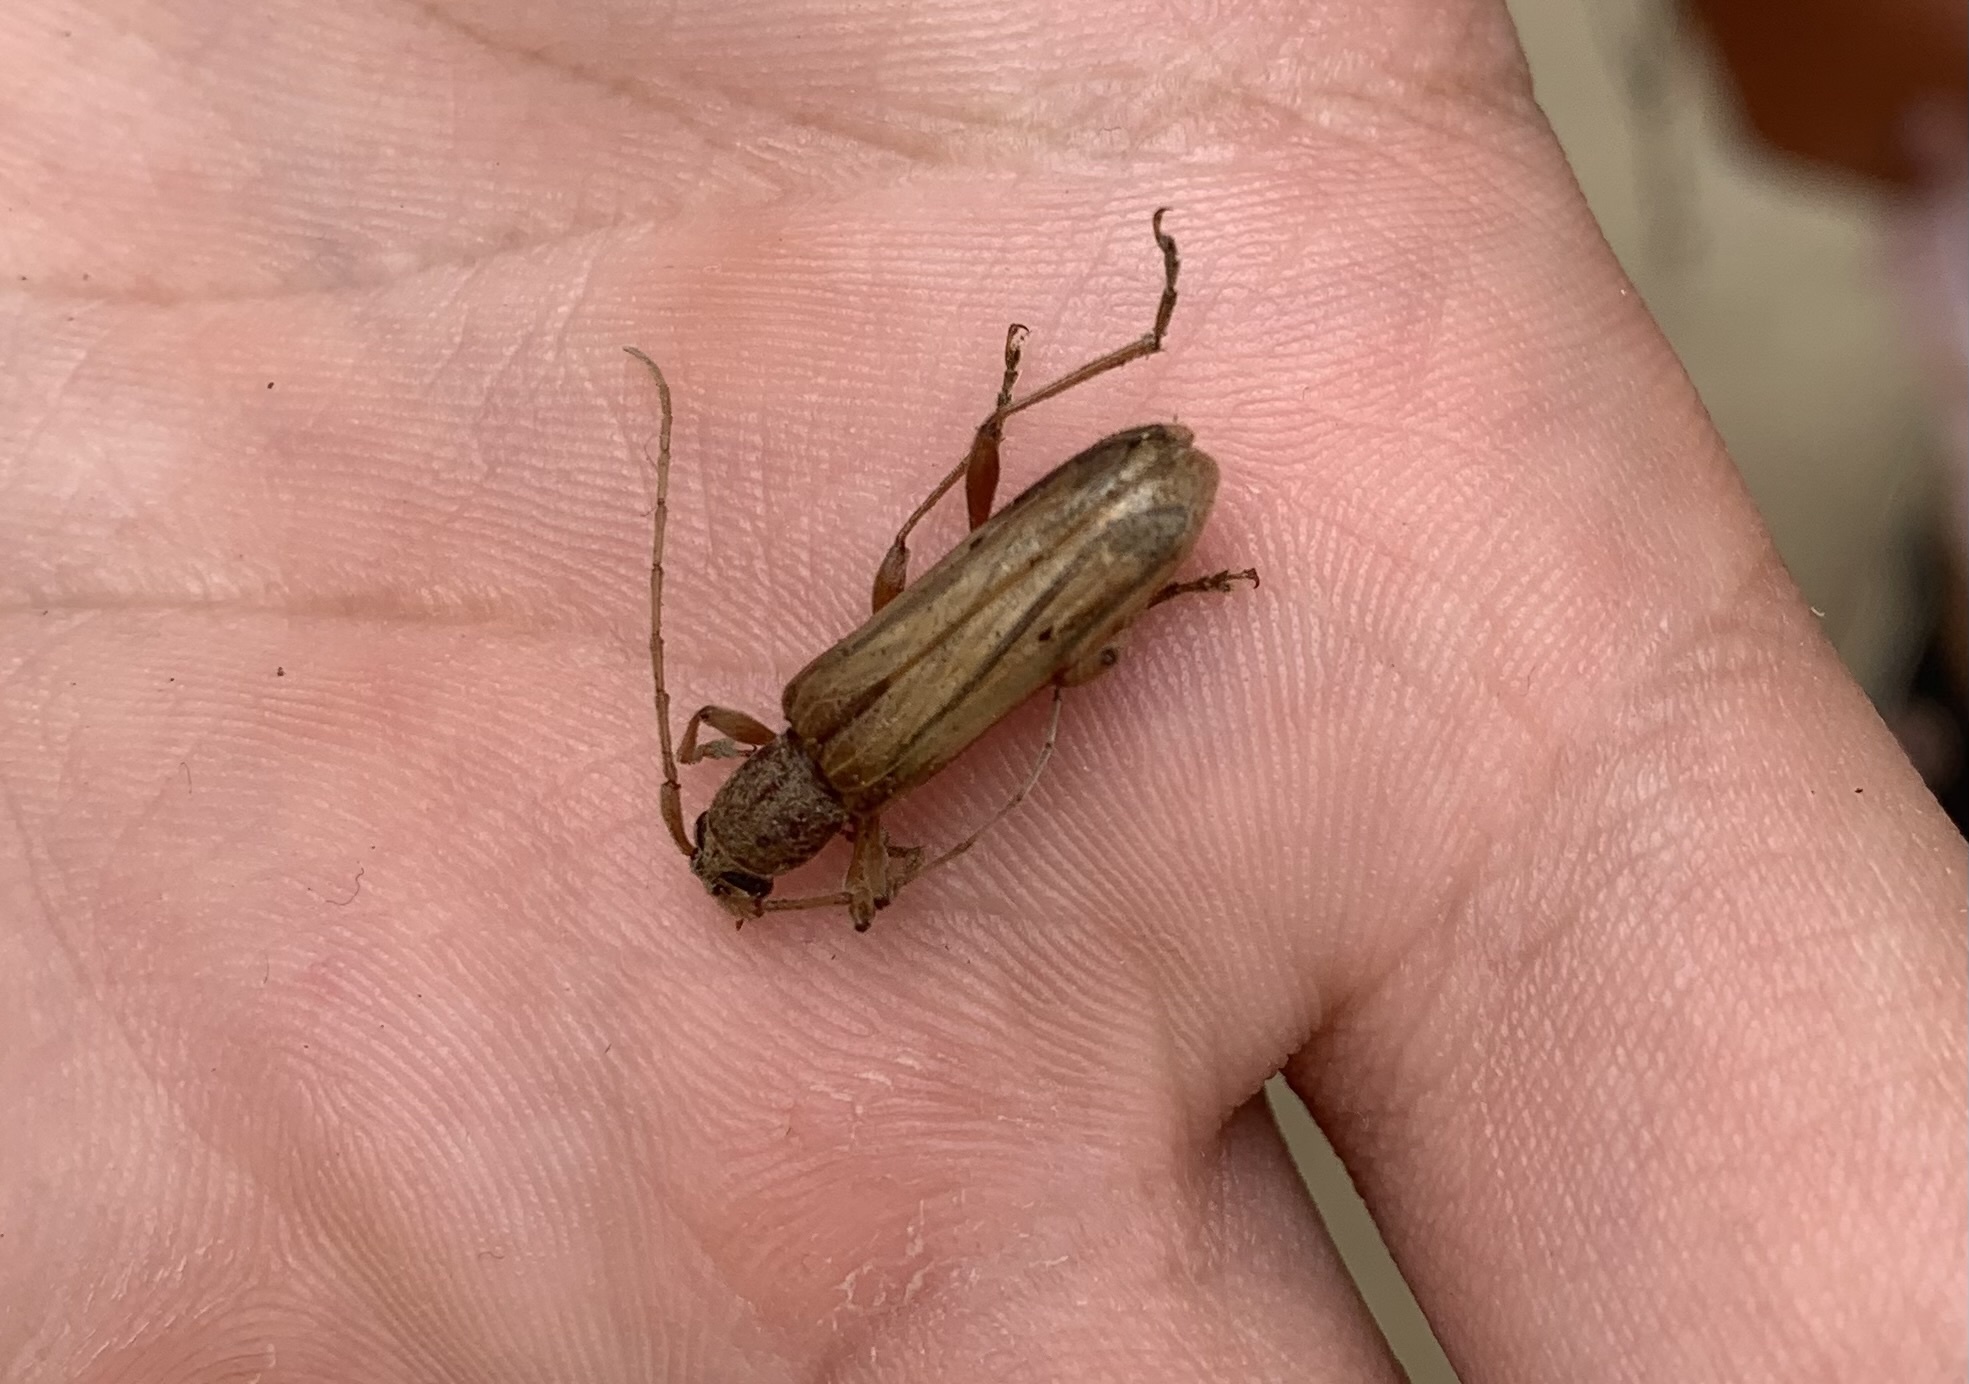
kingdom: Animalia
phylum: Arthropoda
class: Insecta
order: Coleoptera
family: Cerambycidae
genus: Xenocompsa
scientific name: Xenocompsa flavonitida
